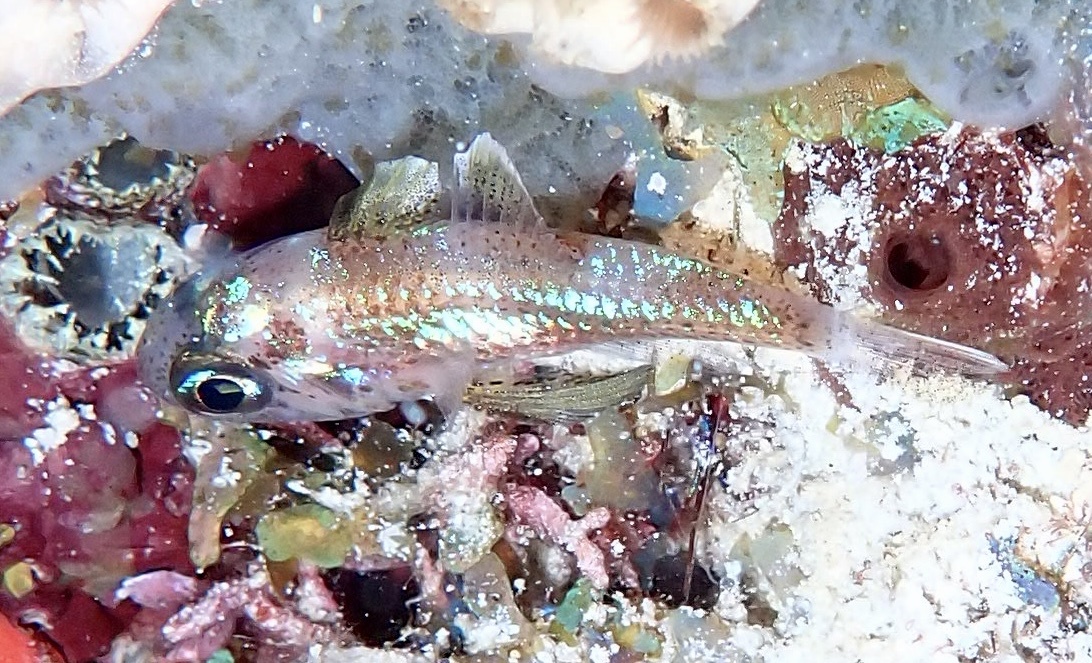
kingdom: Animalia
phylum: Chordata
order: Perciformes
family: Apogonidae
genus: Astrapogon
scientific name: Astrapogon puncticulatus
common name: Blackfin cardinalfish
